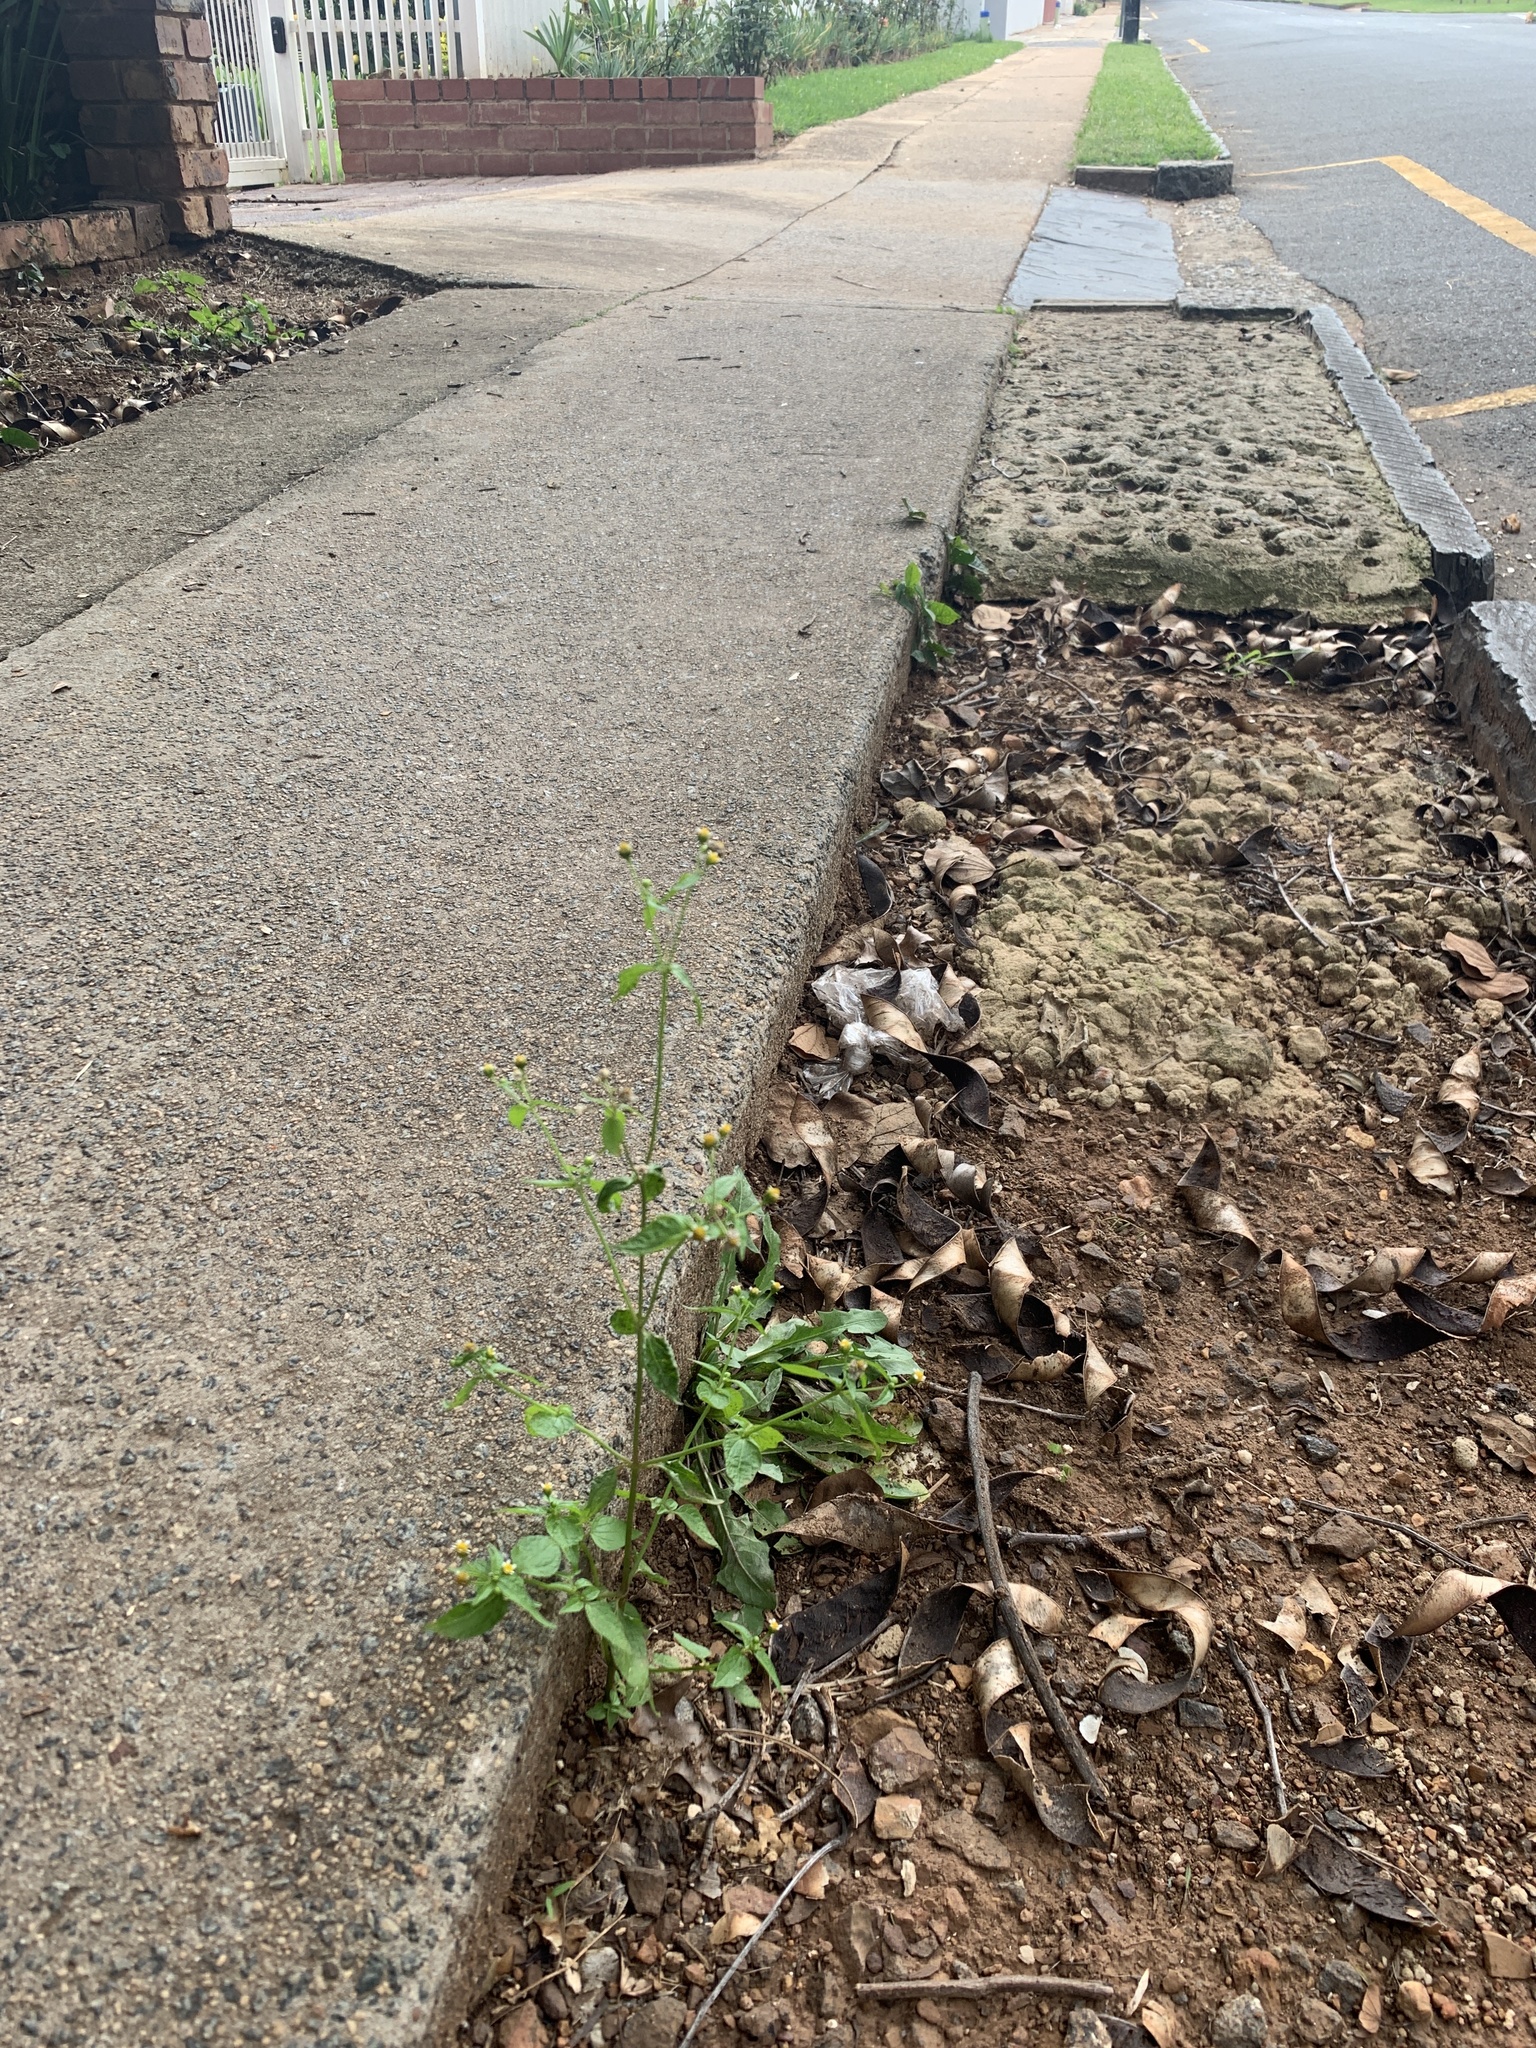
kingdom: Plantae
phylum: Tracheophyta
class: Magnoliopsida
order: Asterales
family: Asteraceae
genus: Galinsoga
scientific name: Galinsoga parviflora
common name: Gallant soldier
